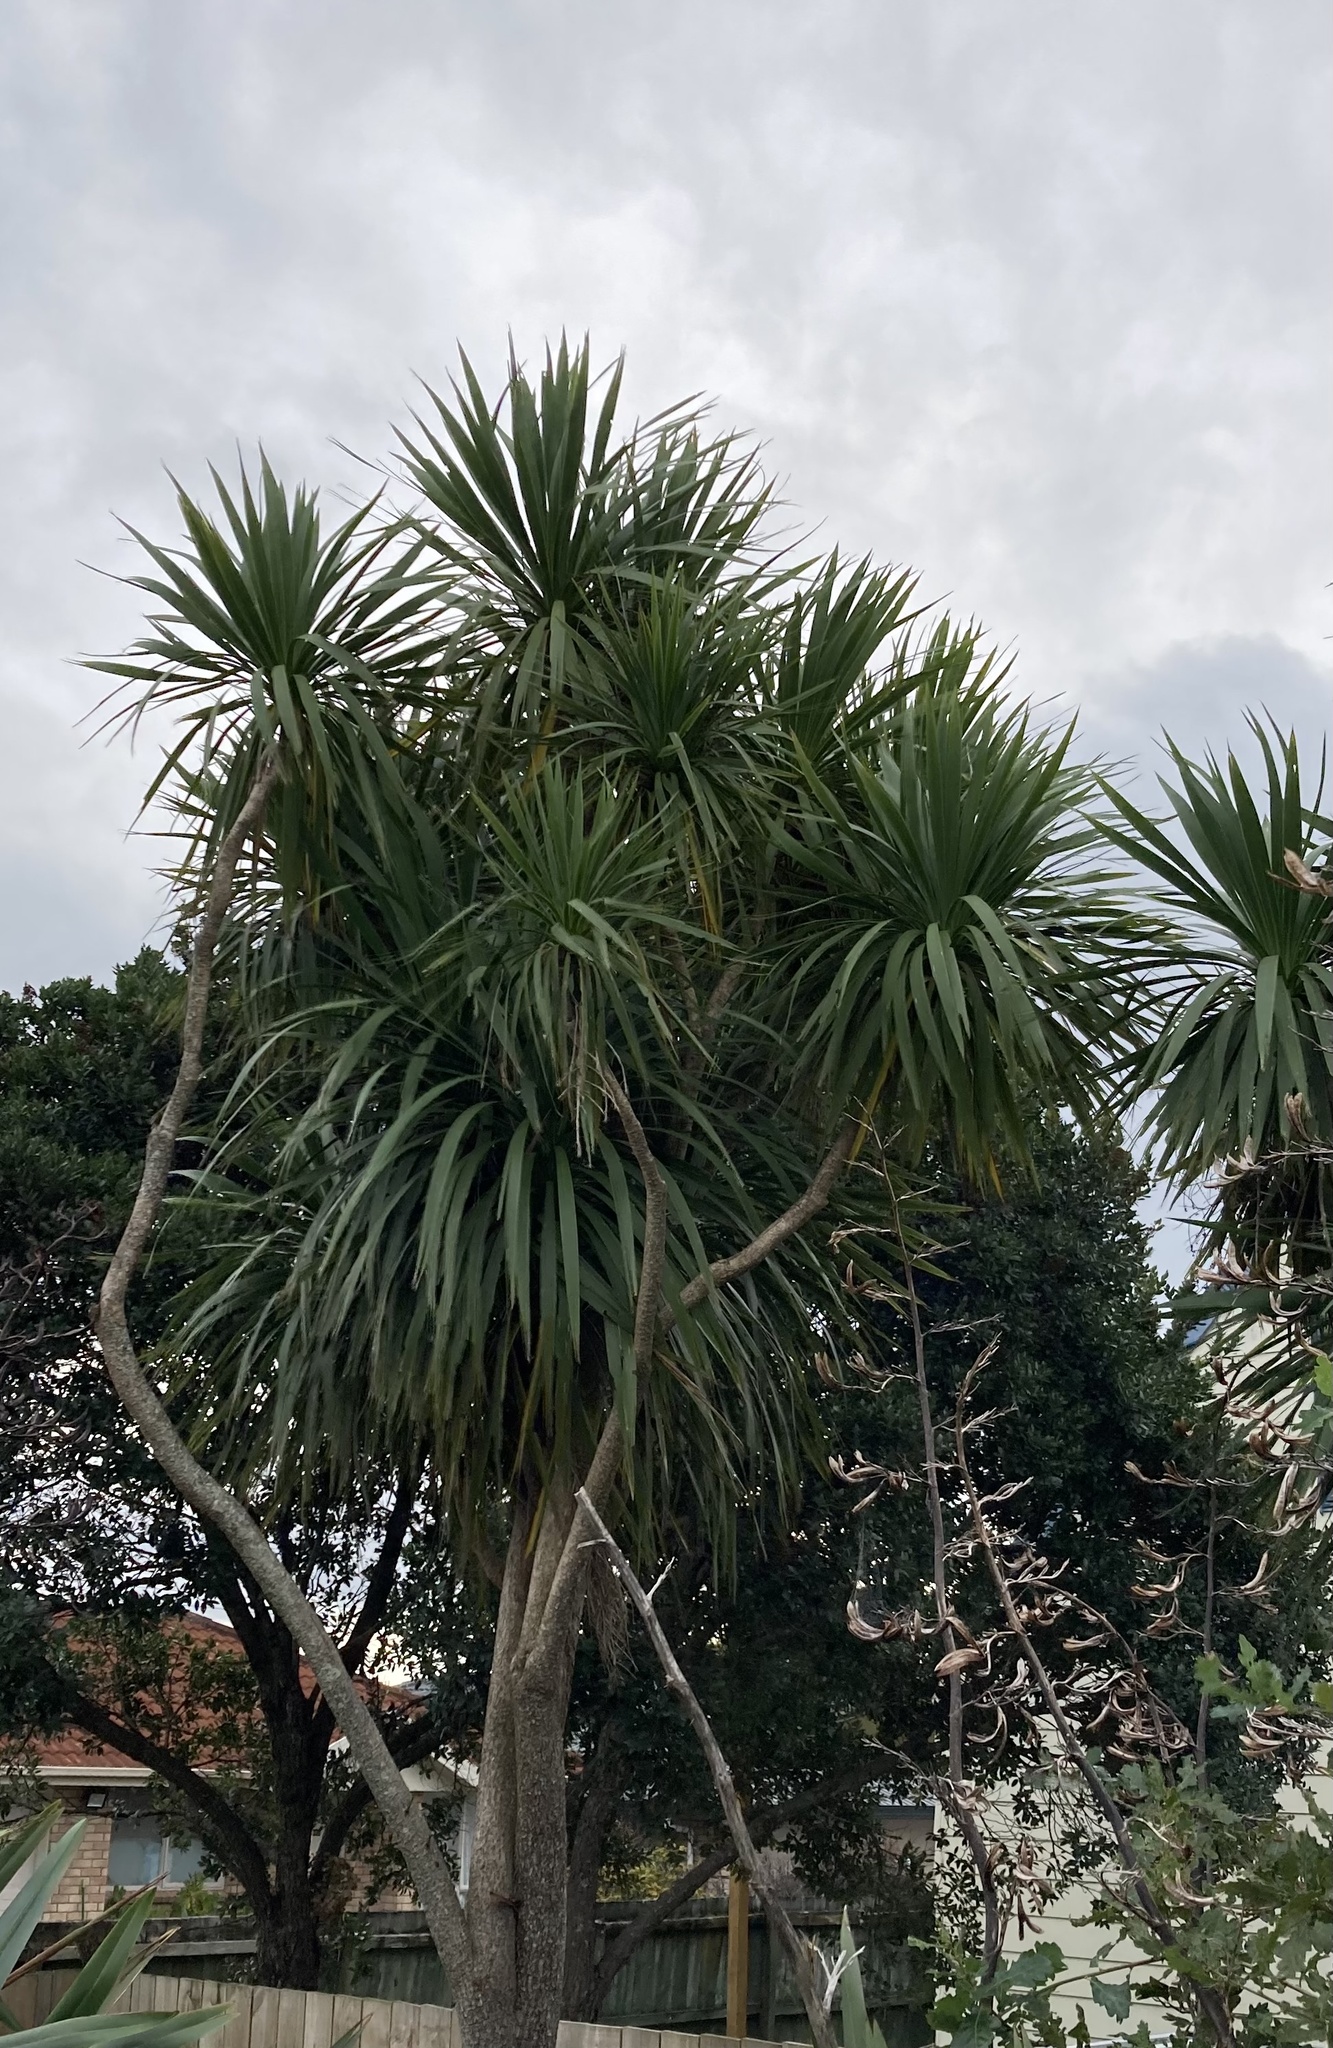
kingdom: Plantae
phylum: Tracheophyta
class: Liliopsida
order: Asparagales
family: Asparagaceae
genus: Cordyline
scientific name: Cordyline australis
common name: Cabbage-palm
